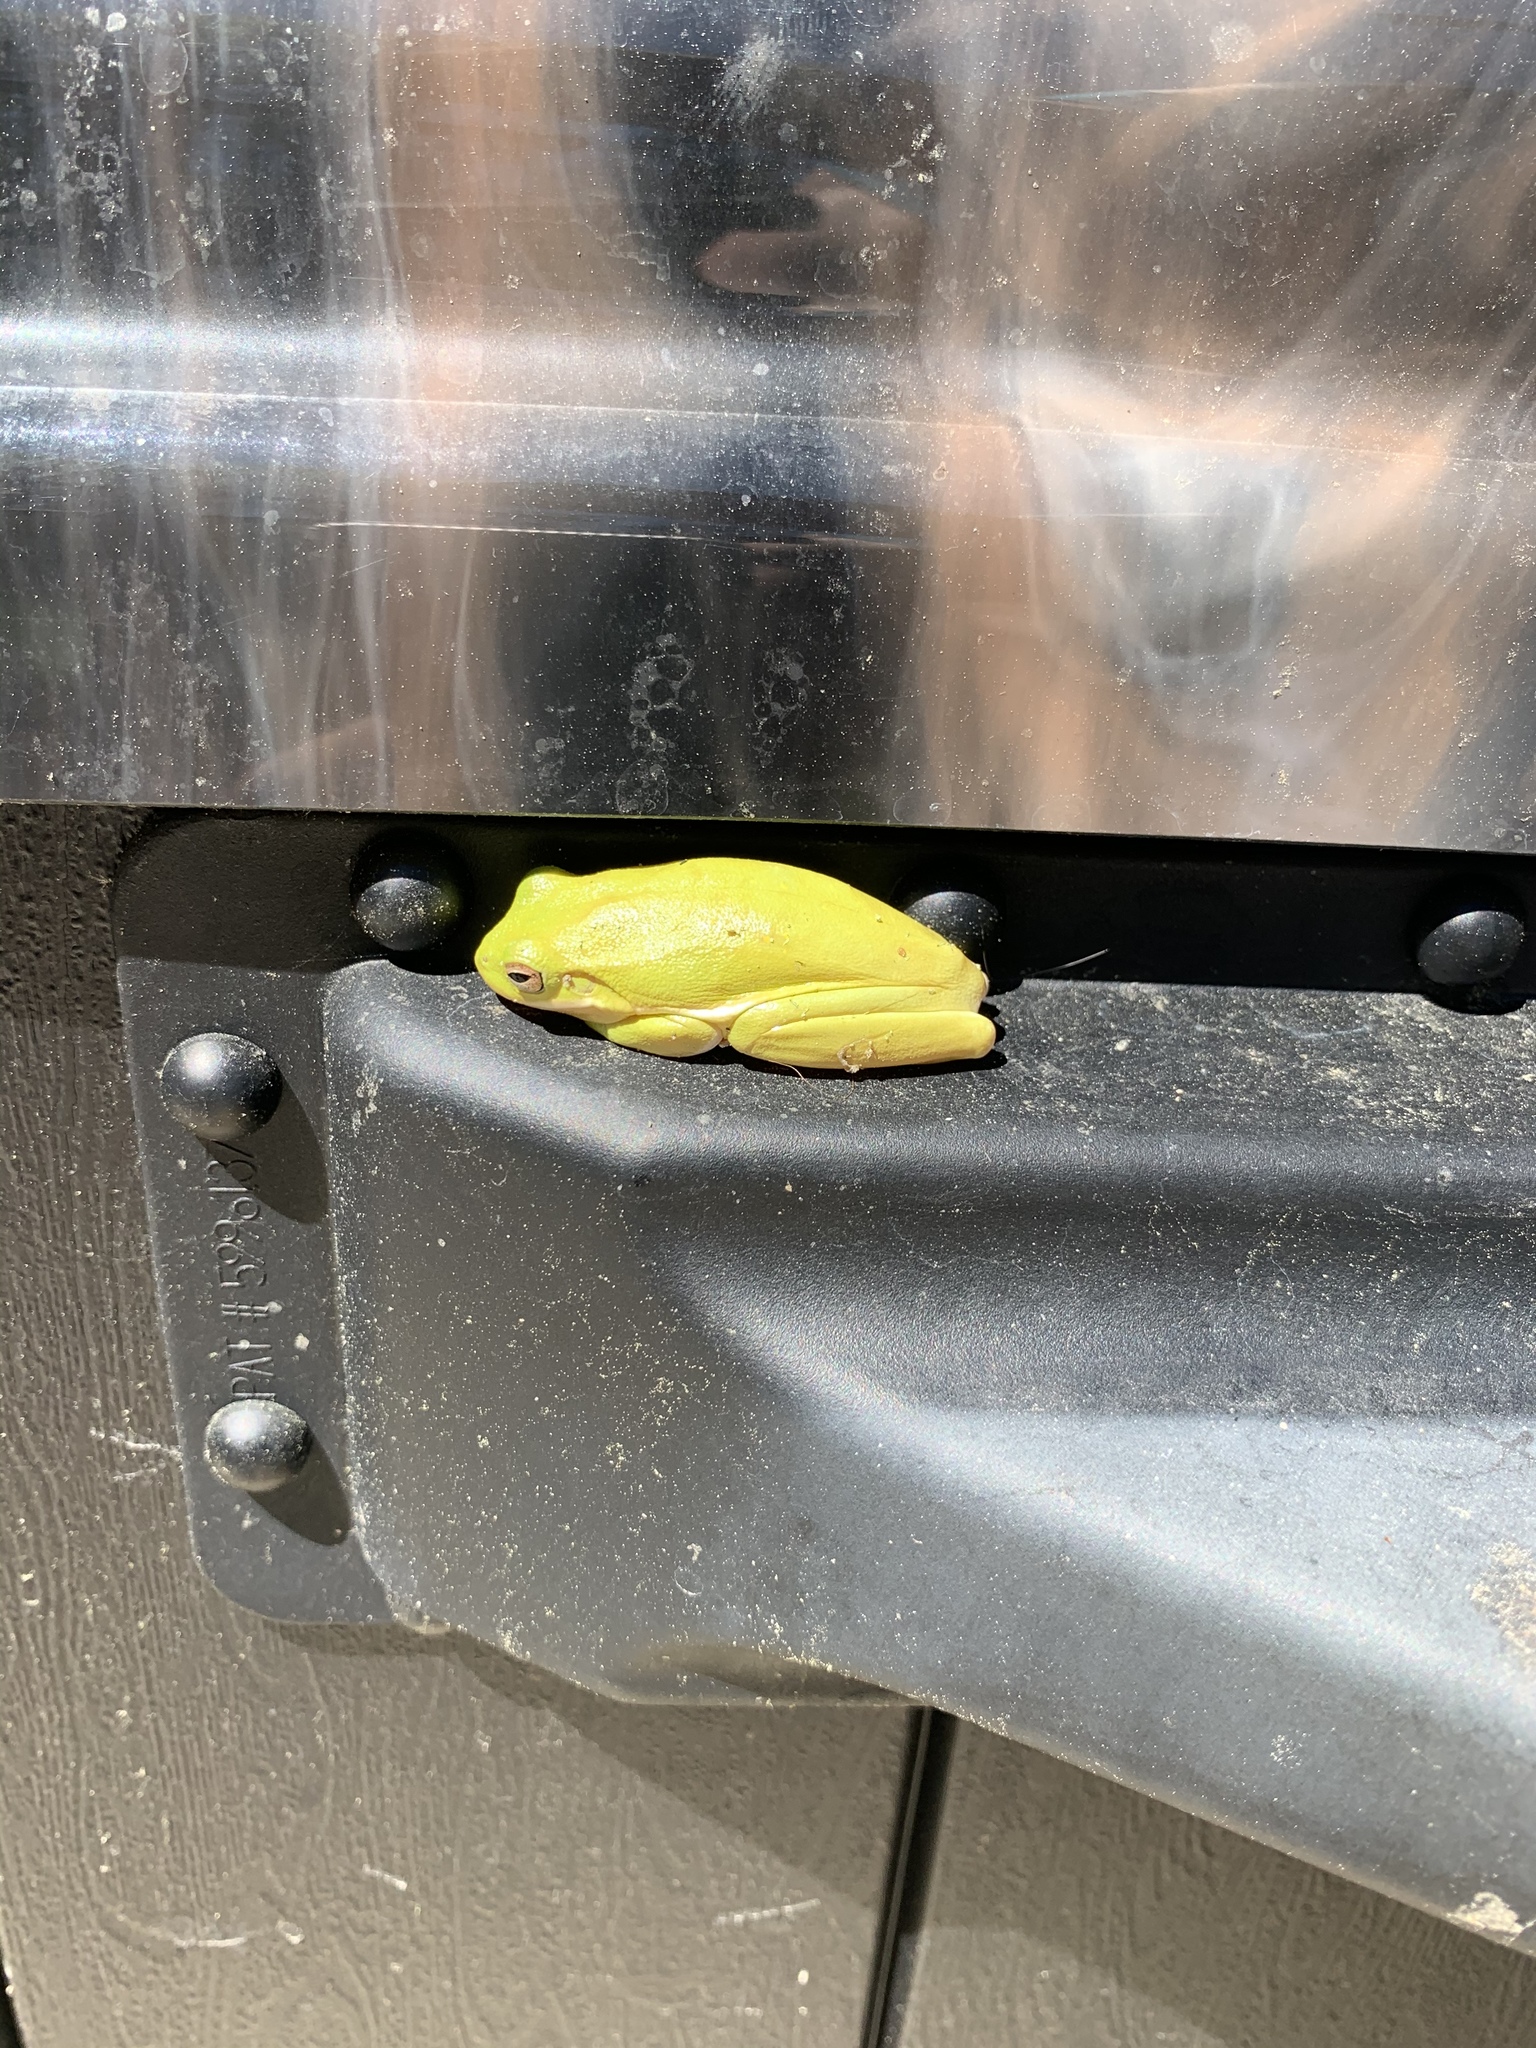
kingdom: Animalia
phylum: Chordata
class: Amphibia
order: Anura
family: Hylidae
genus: Dryophytes
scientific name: Dryophytes cinereus
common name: Green treefrog
